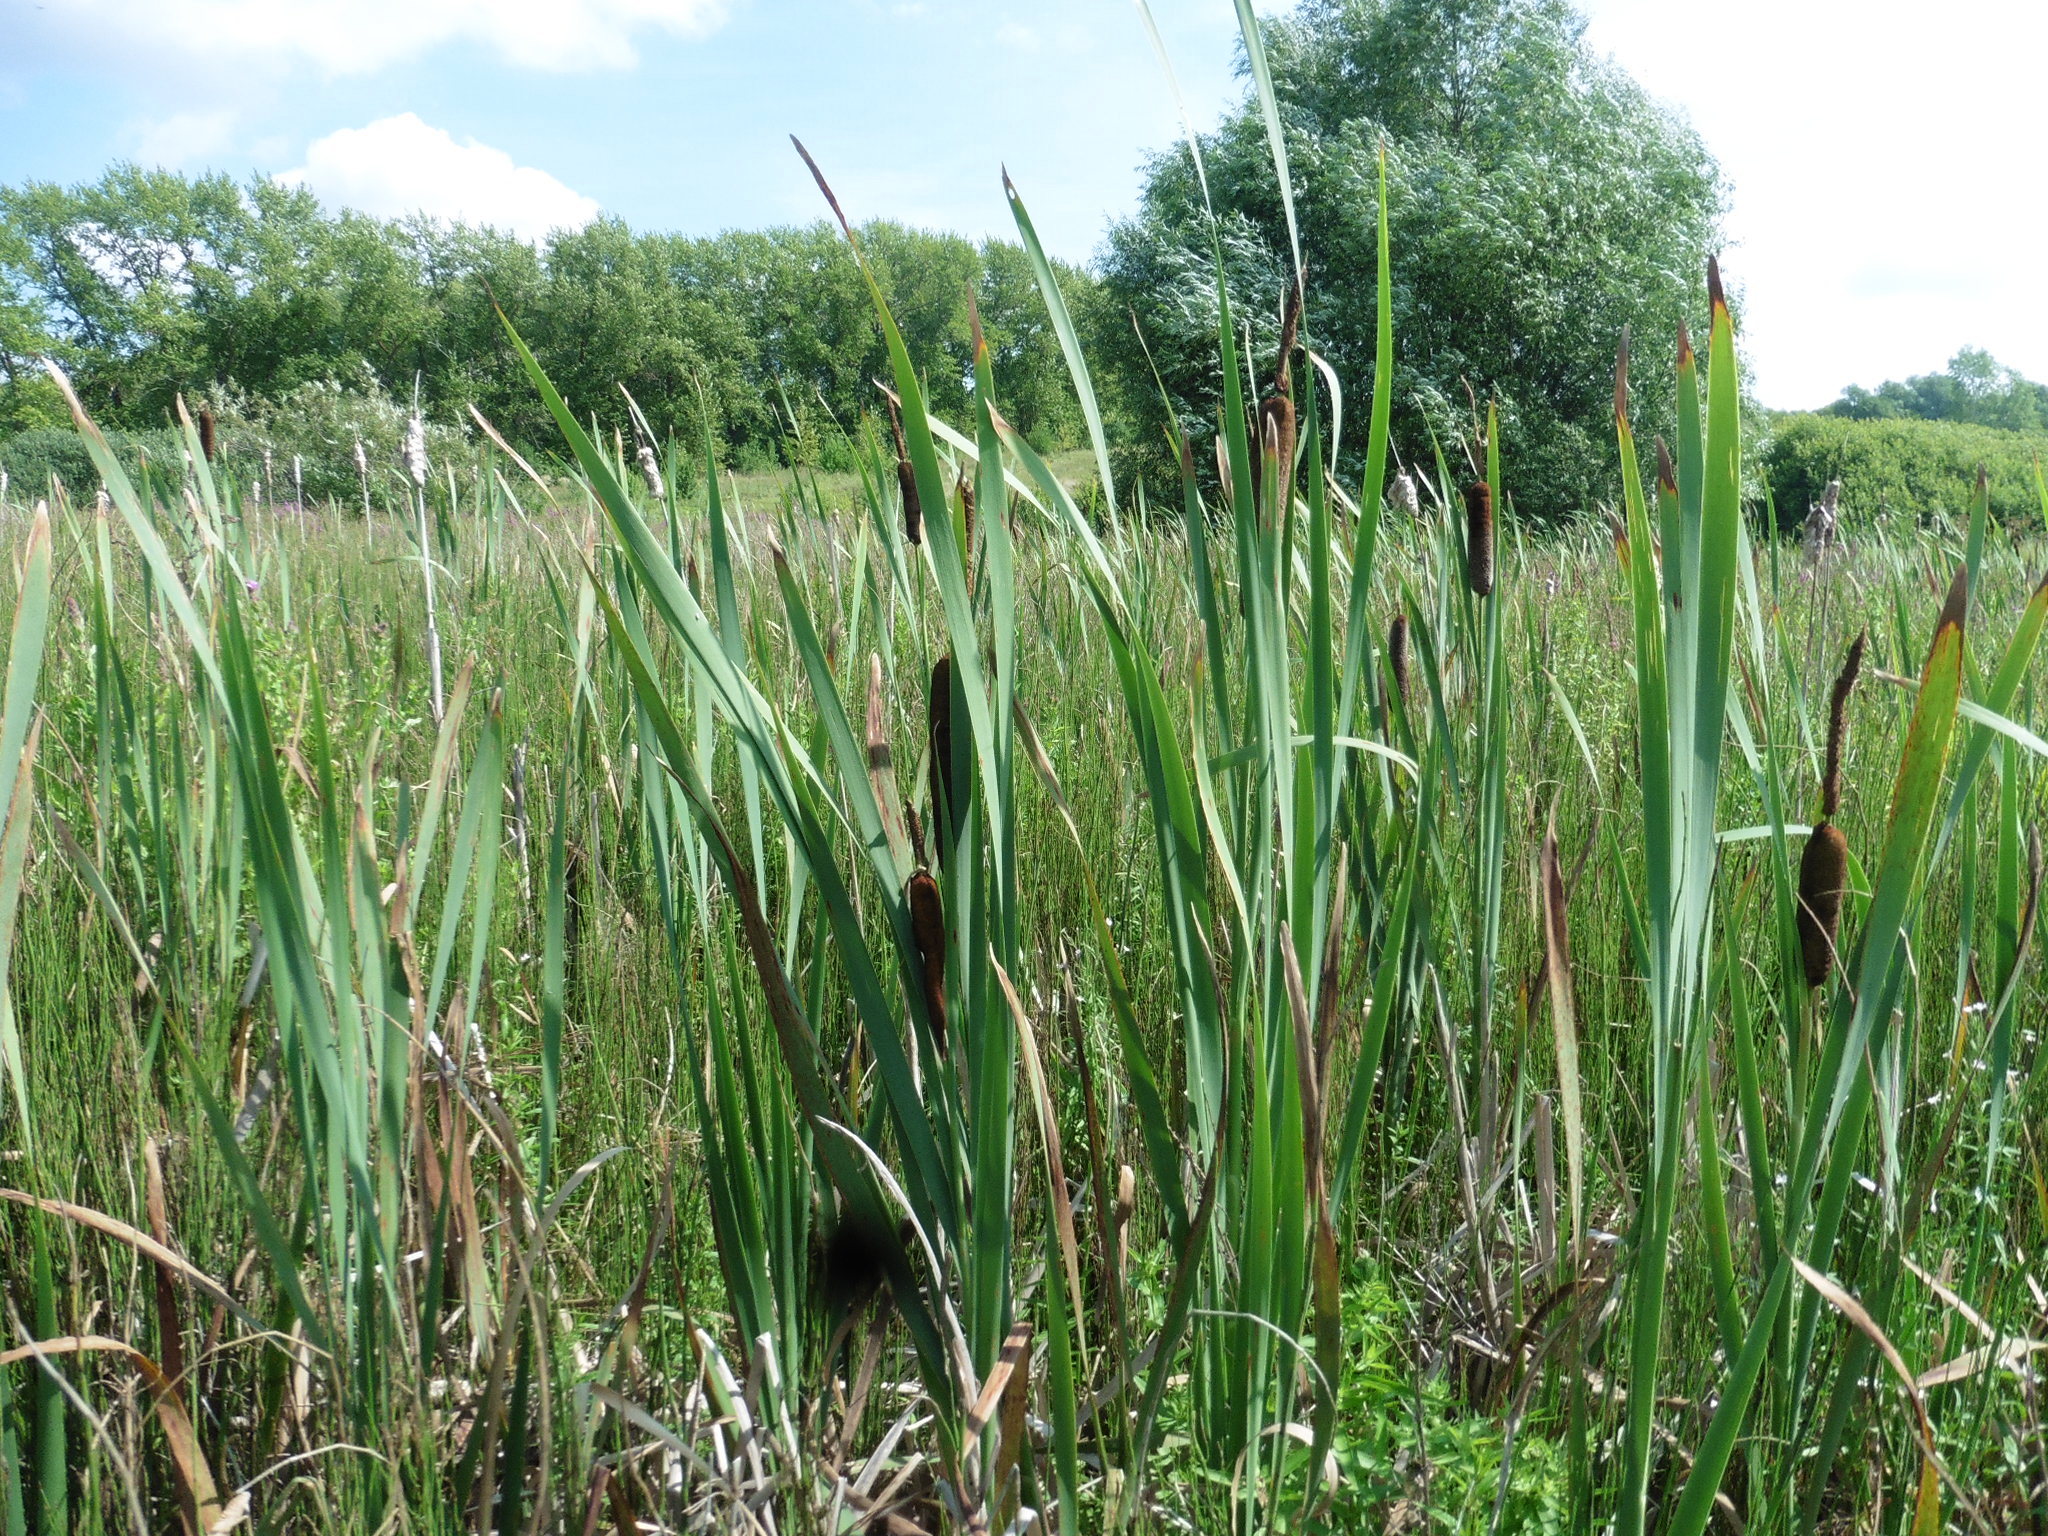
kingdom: Plantae
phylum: Tracheophyta
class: Liliopsida
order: Poales
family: Typhaceae
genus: Typha
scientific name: Typha latifolia
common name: Broadleaf cattail
